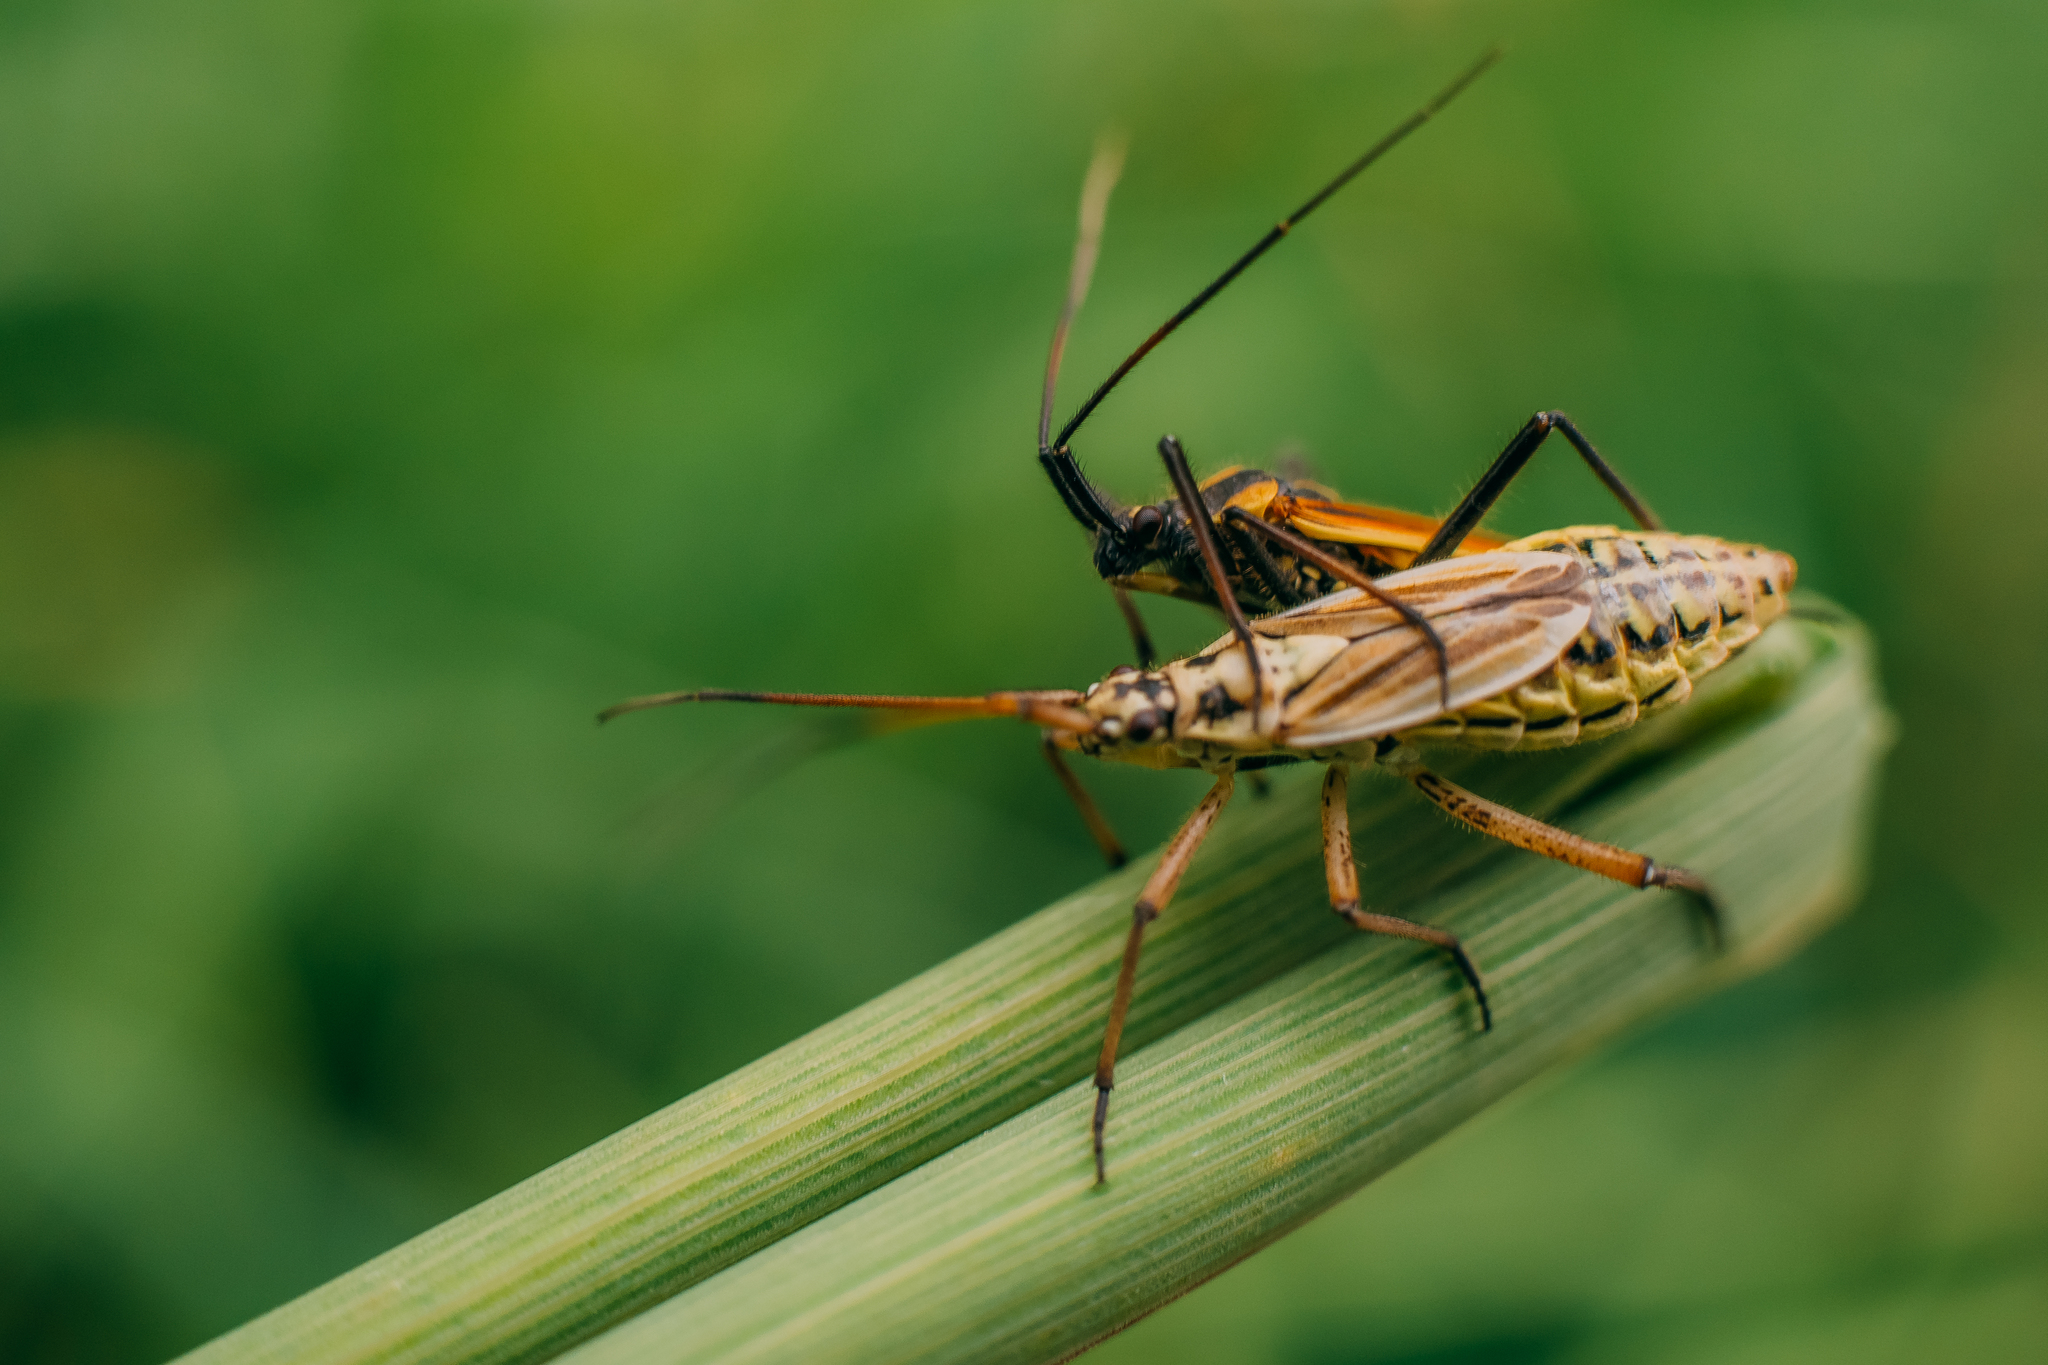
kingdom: Animalia
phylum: Arthropoda
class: Insecta
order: Hemiptera
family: Miridae
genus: Leptopterna
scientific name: Leptopterna dolabrata
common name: Meadow plant bug
